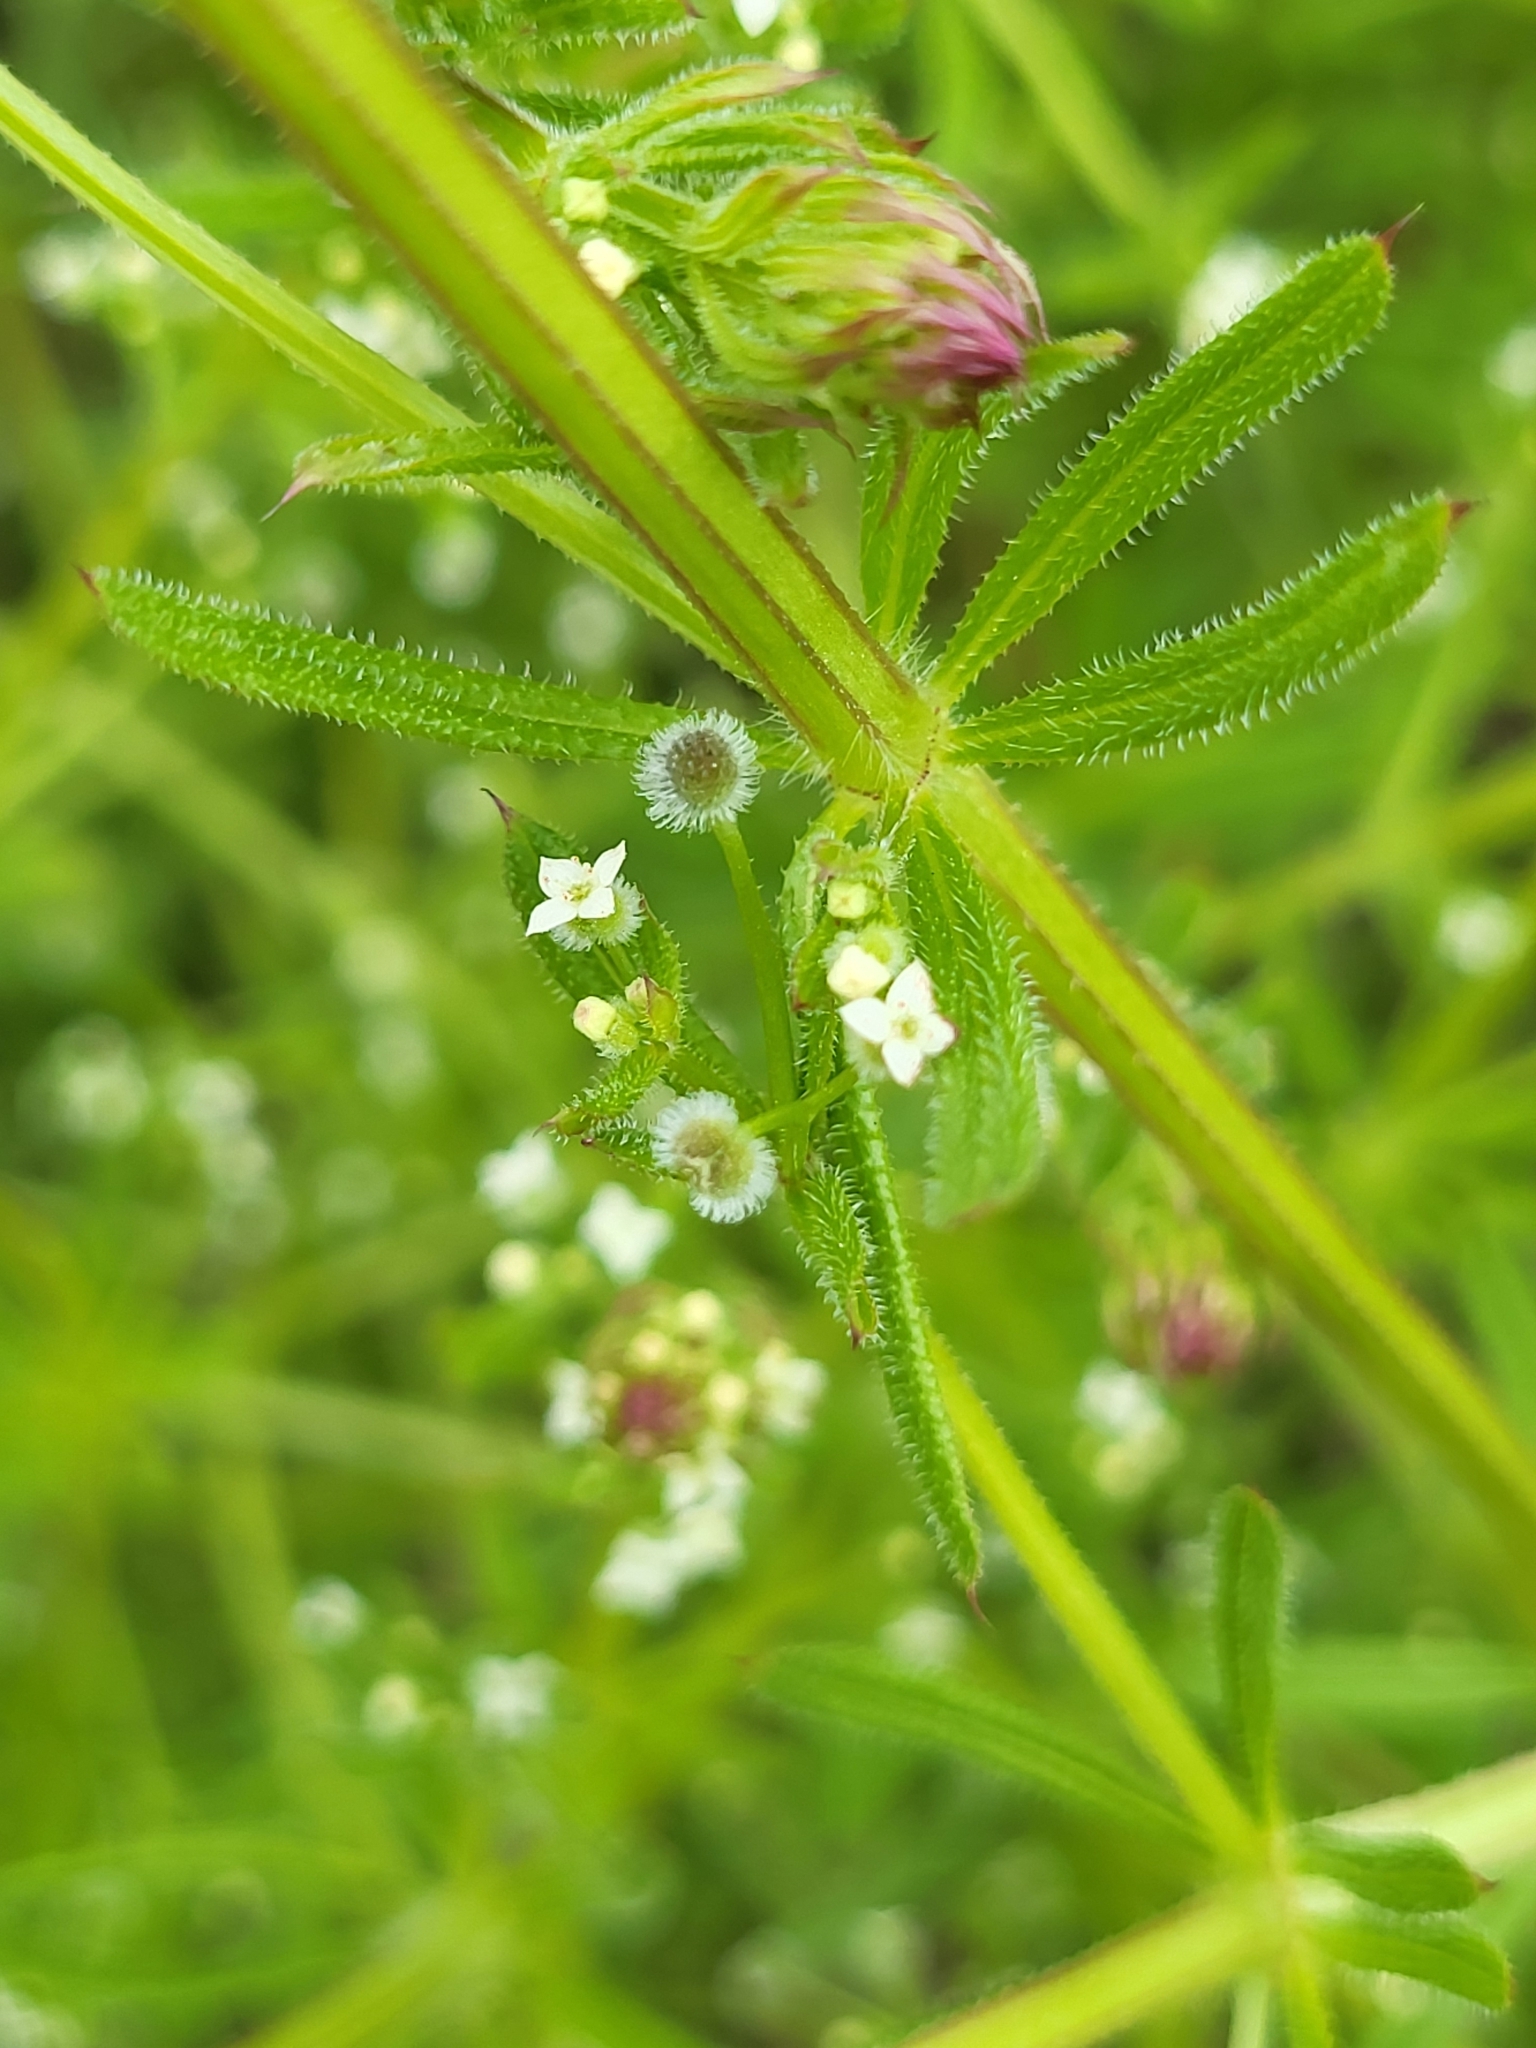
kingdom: Plantae
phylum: Tracheophyta
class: Magnoliopsida
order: Gentianales
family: Rubiaceae
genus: Galium
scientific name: Galium aparine
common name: Cleavers
